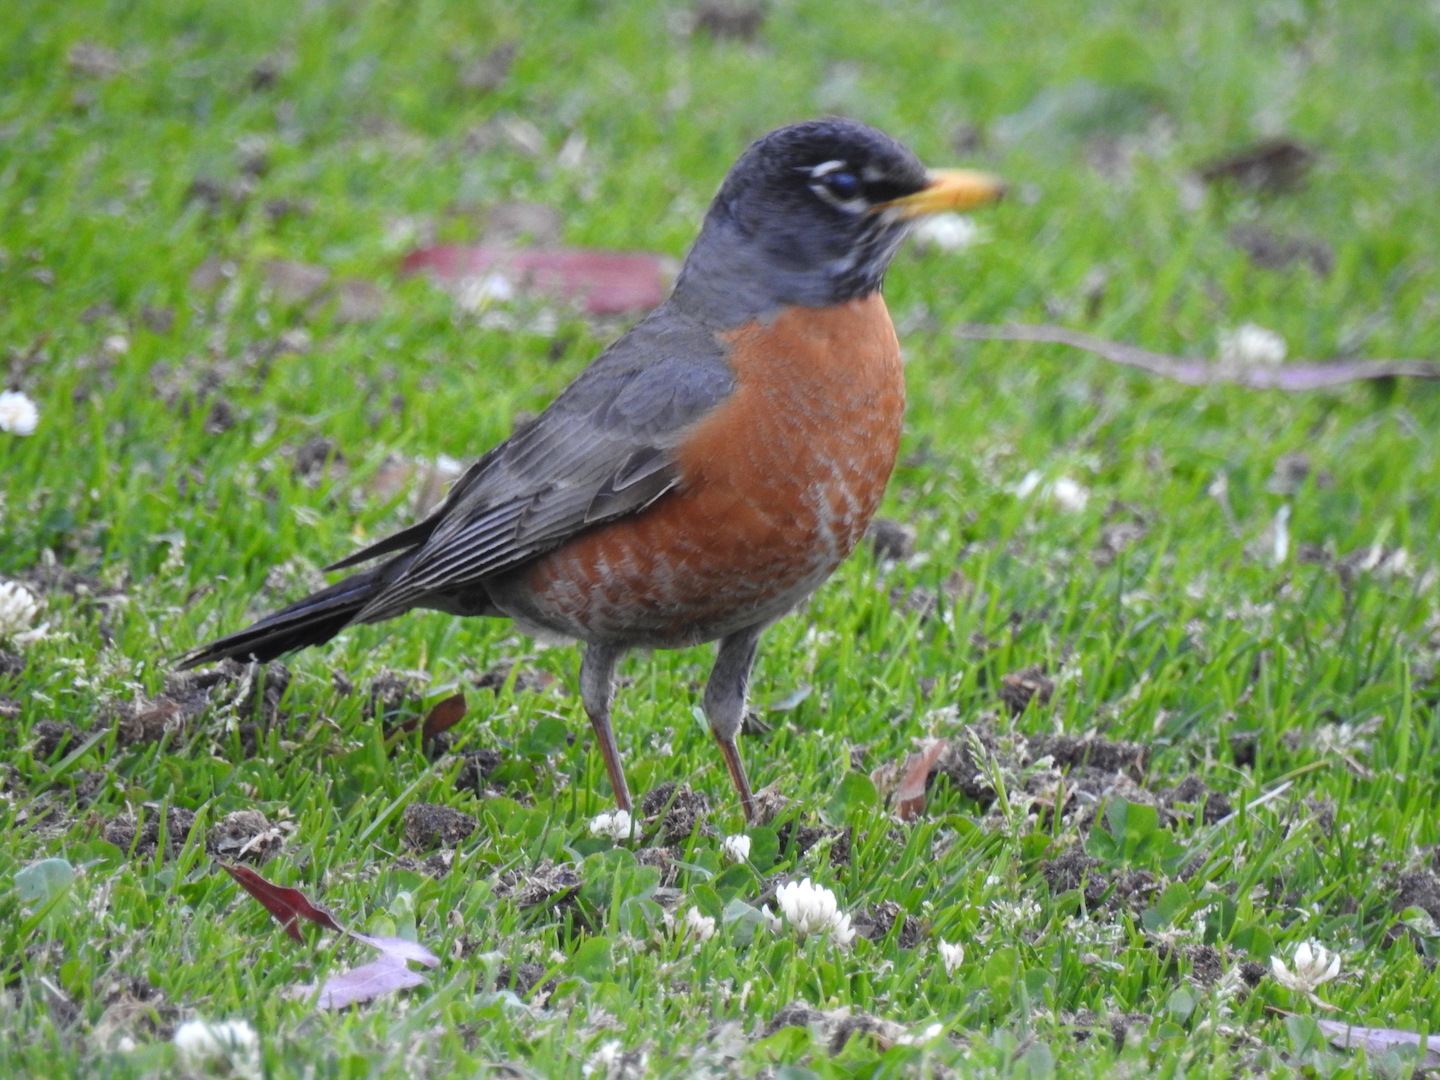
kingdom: Animalia
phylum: Chordata
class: Aves
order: Passeriformes
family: Turdidae
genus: Turdus
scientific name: Turdus migratorius
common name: American robin
